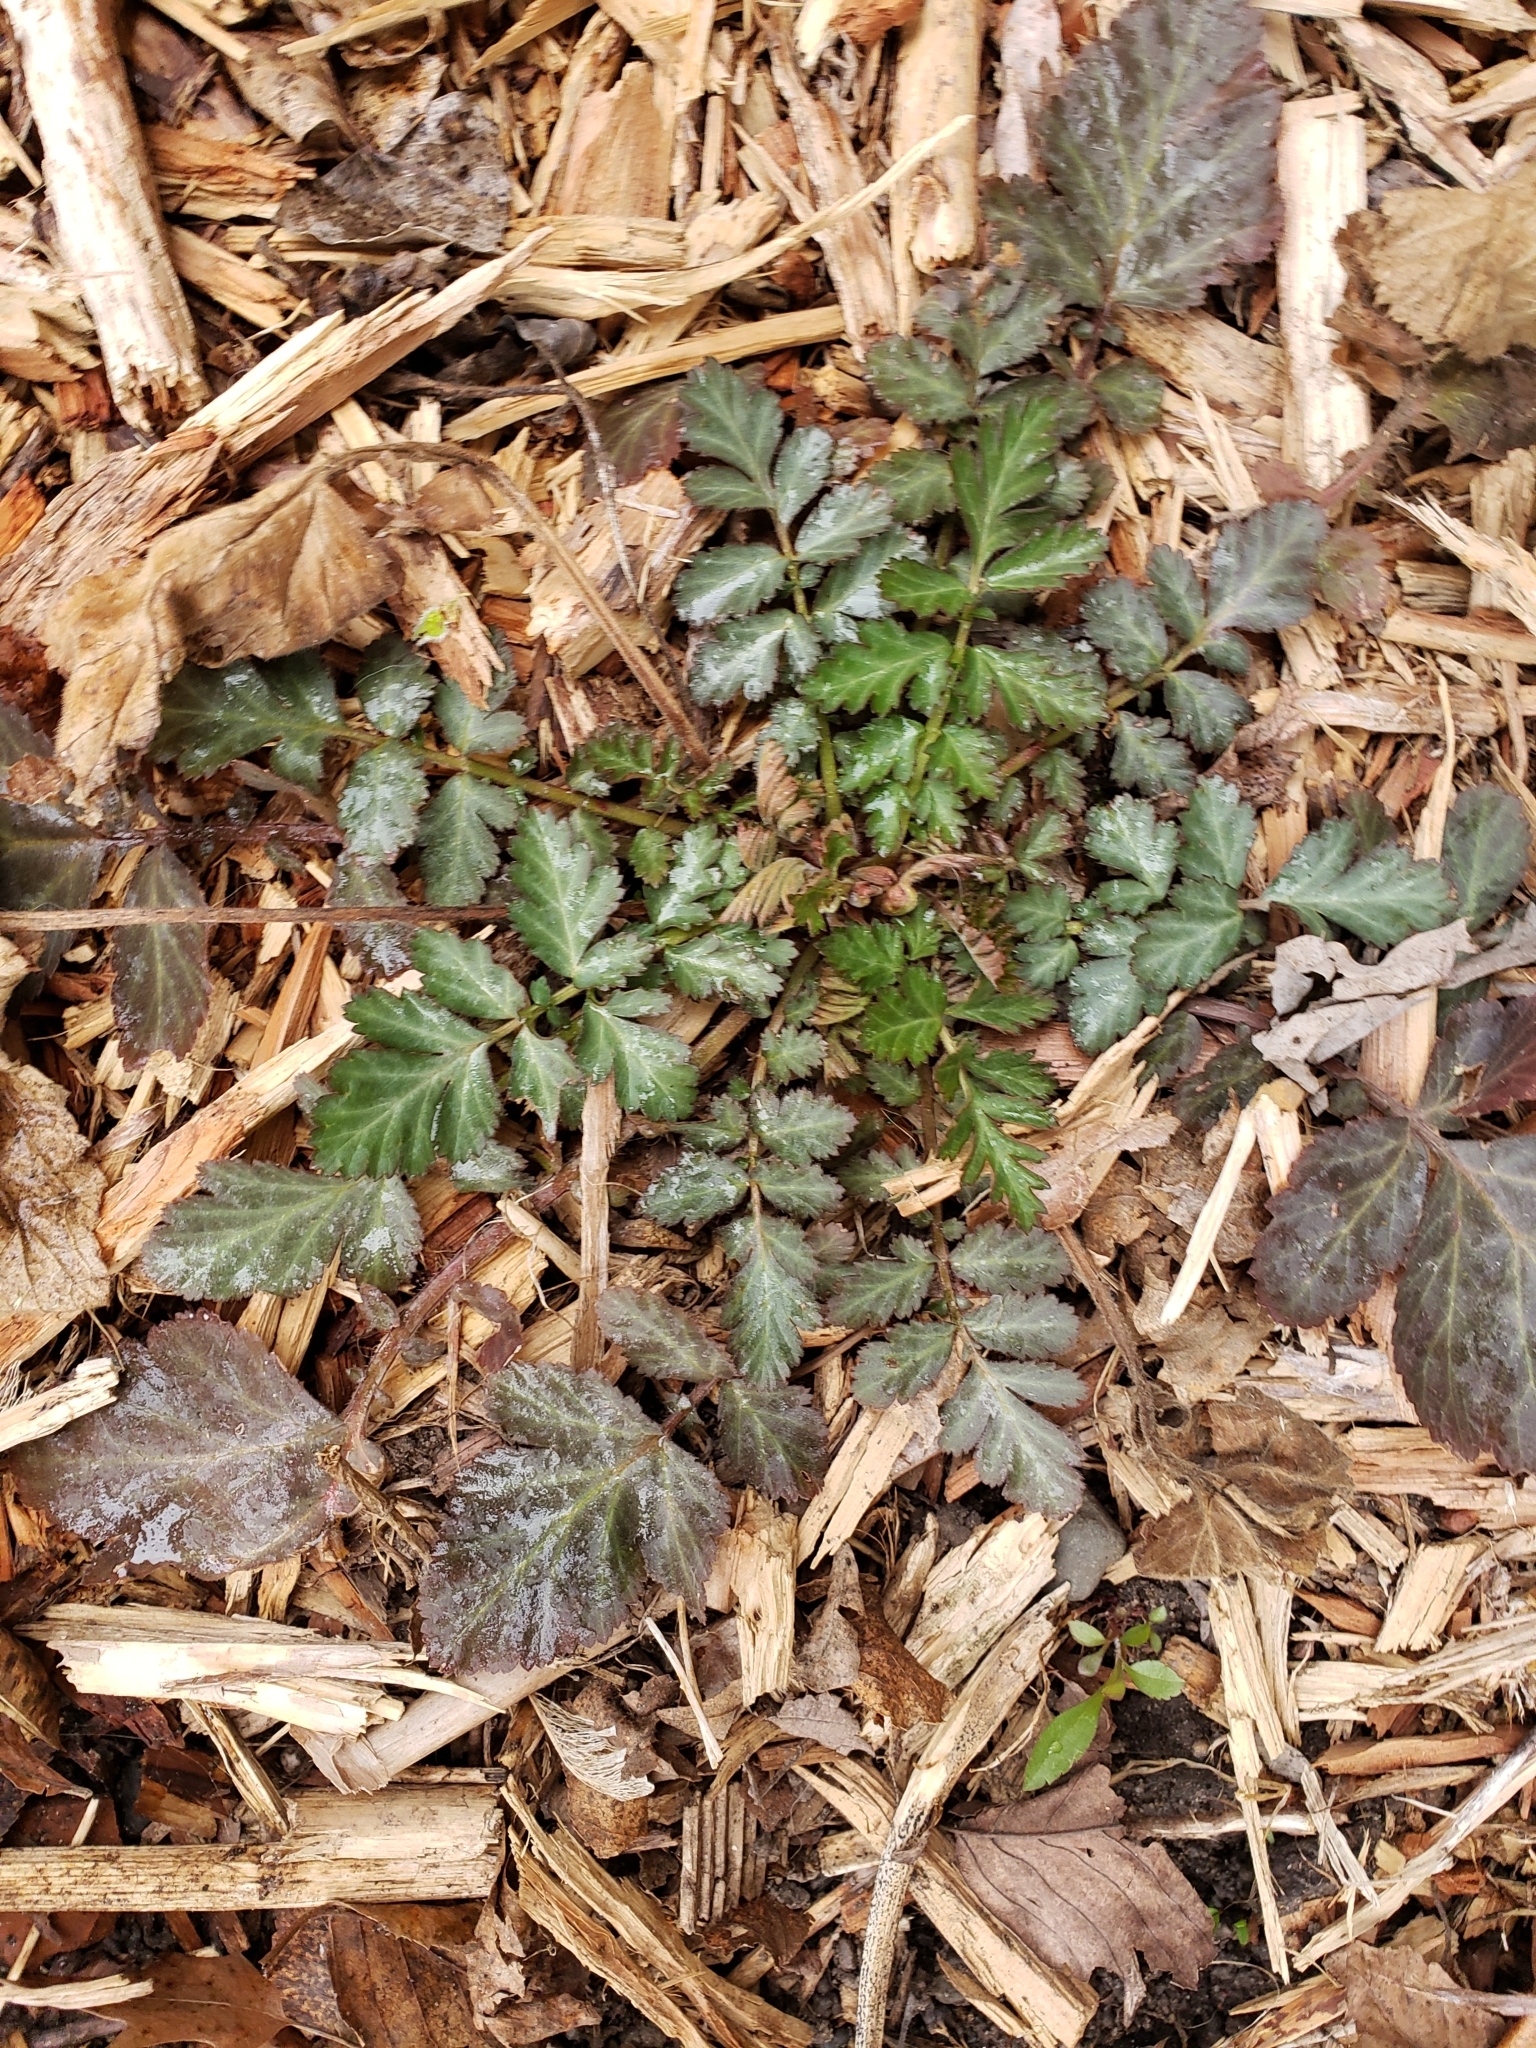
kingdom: Plantae
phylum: Tracheophyta
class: Magnoliopsida
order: Rosales
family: Rosaceae
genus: Geum
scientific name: Geum canadense
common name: White avens
